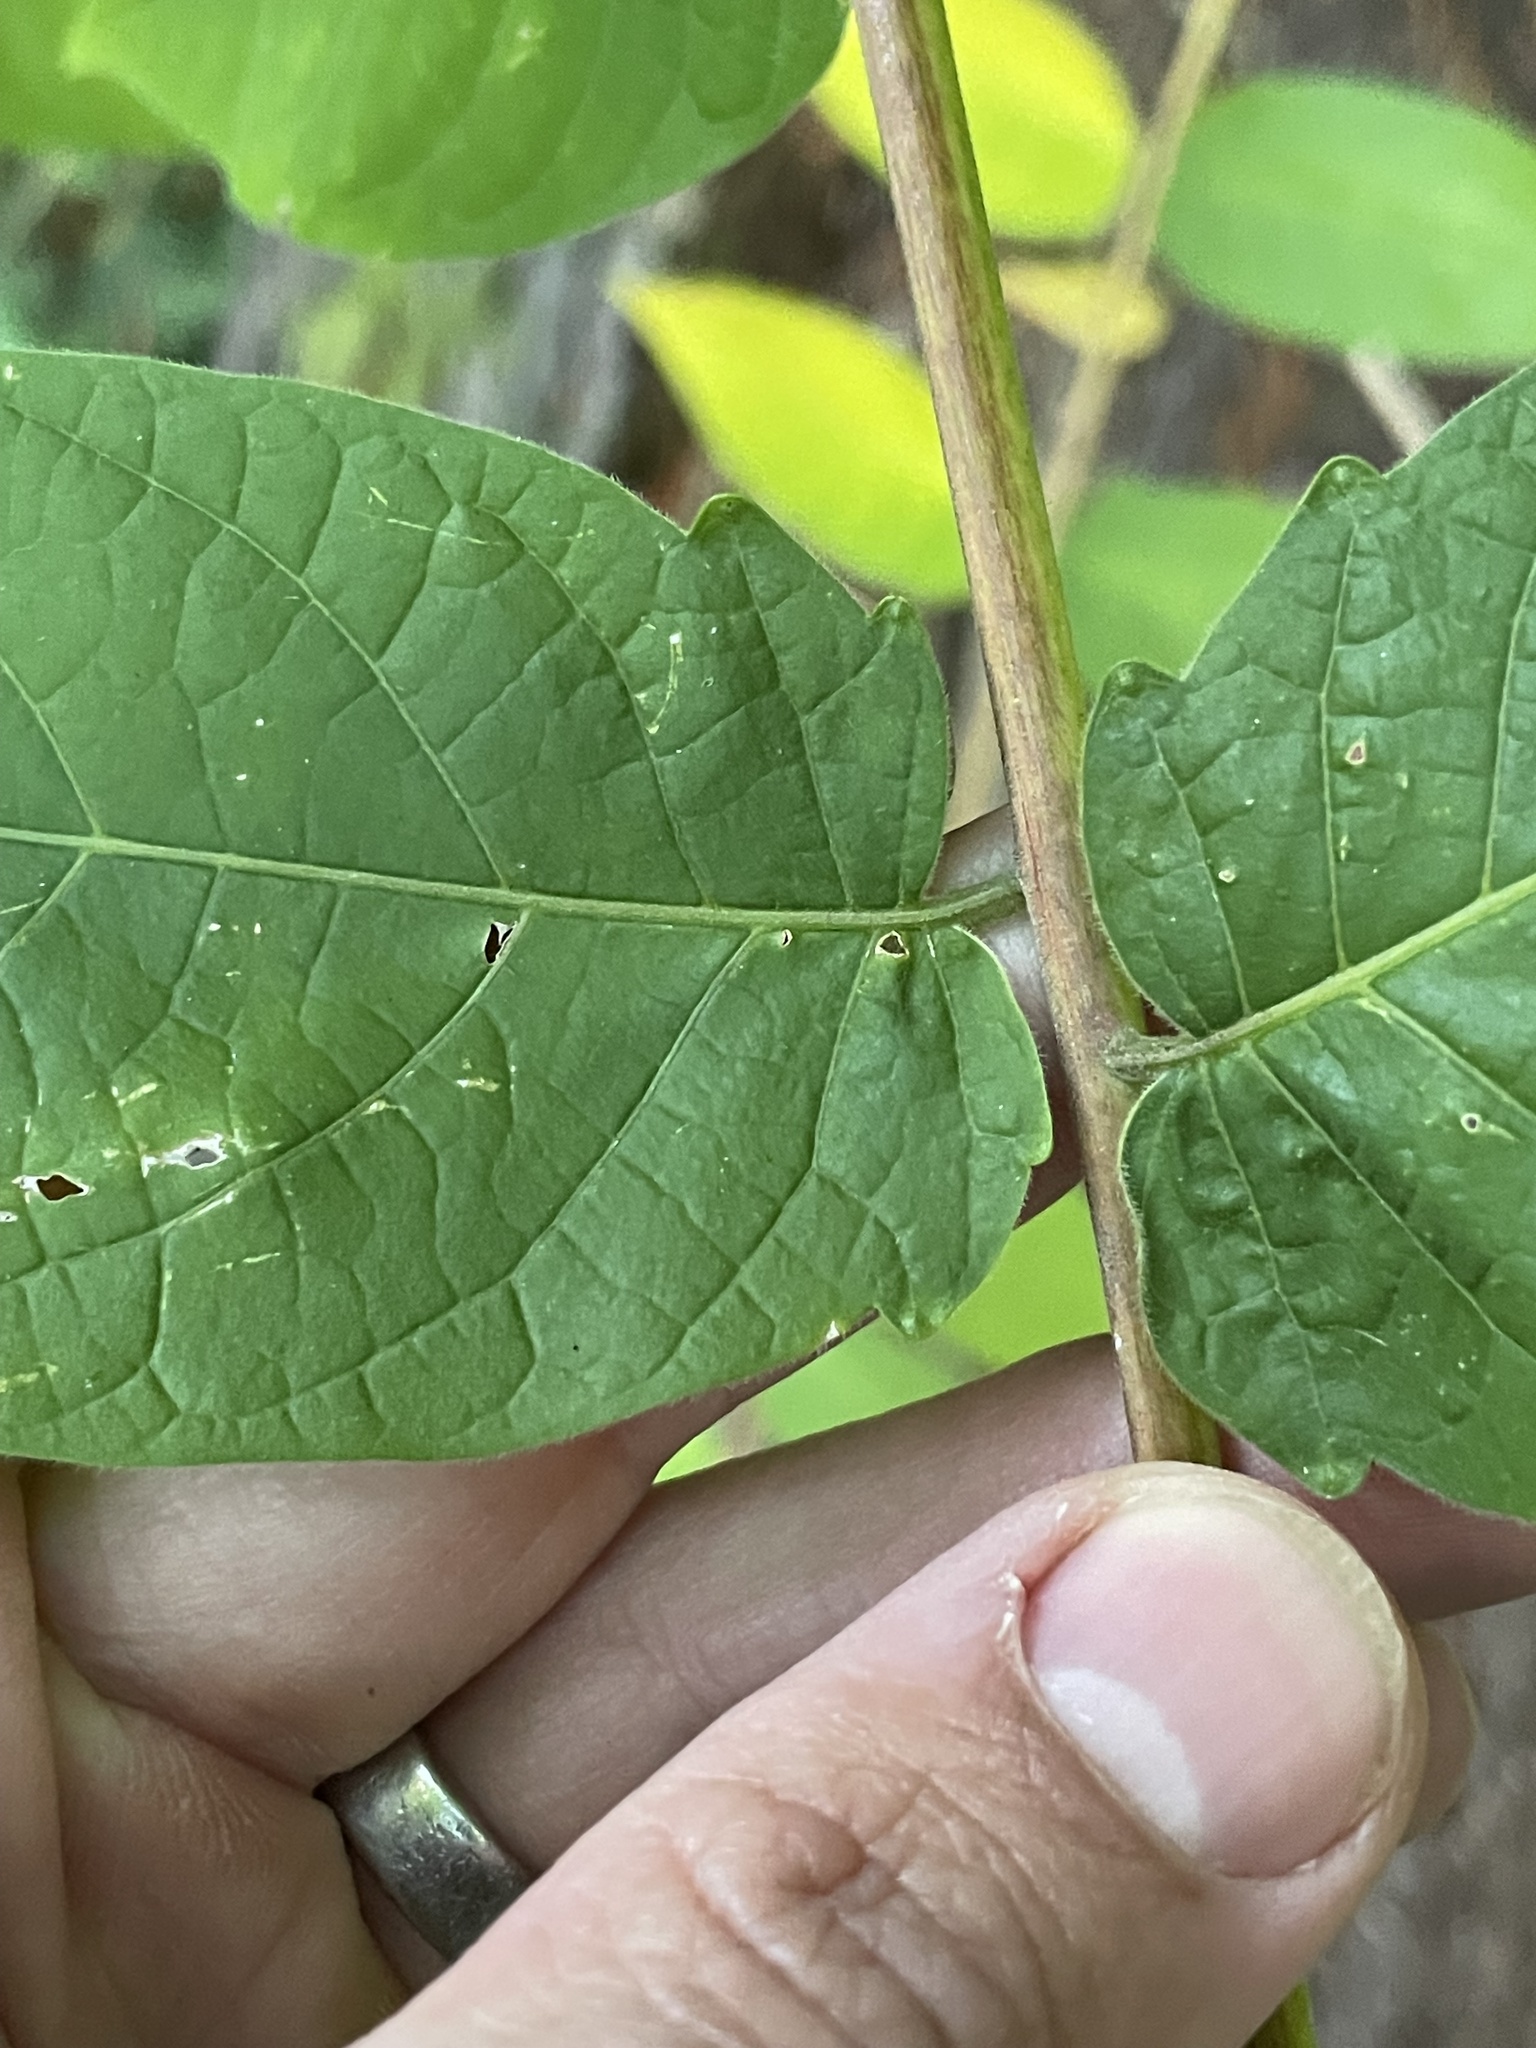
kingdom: Plantae
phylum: Tracheophyta
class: Magnoliopsida
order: Sapindales
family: Simaroubaceae
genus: Ailanthus
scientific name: Ailanthus altissima
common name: Tree-of-heaven
